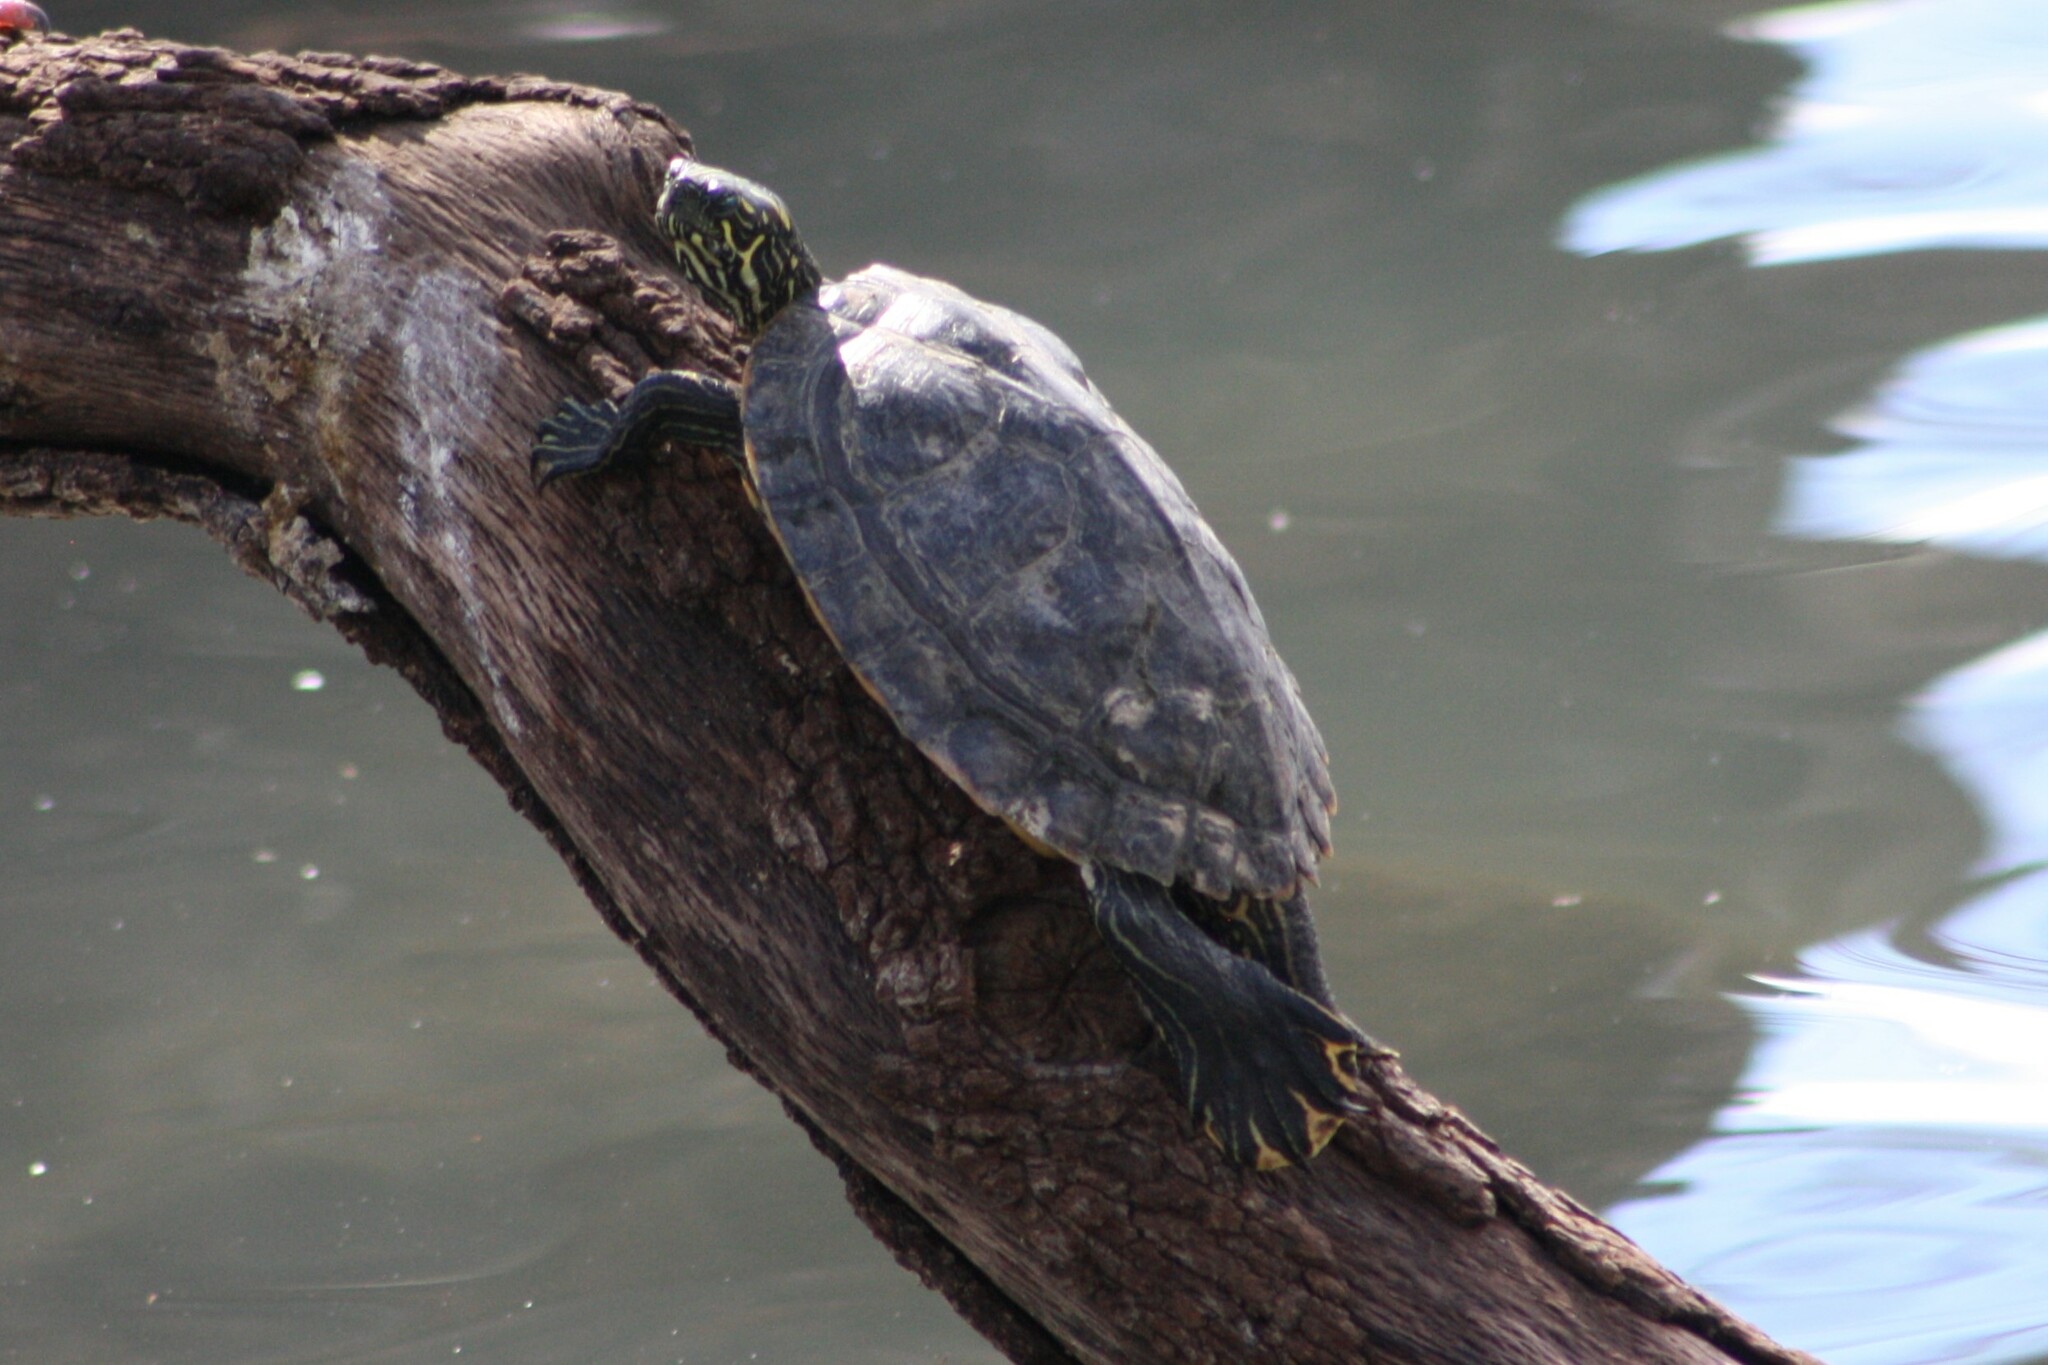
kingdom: Animalia
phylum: Chordata
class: Testudines
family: Emydidae
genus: Pseudemys
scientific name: Pseudemys texana
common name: Texas river cooter
